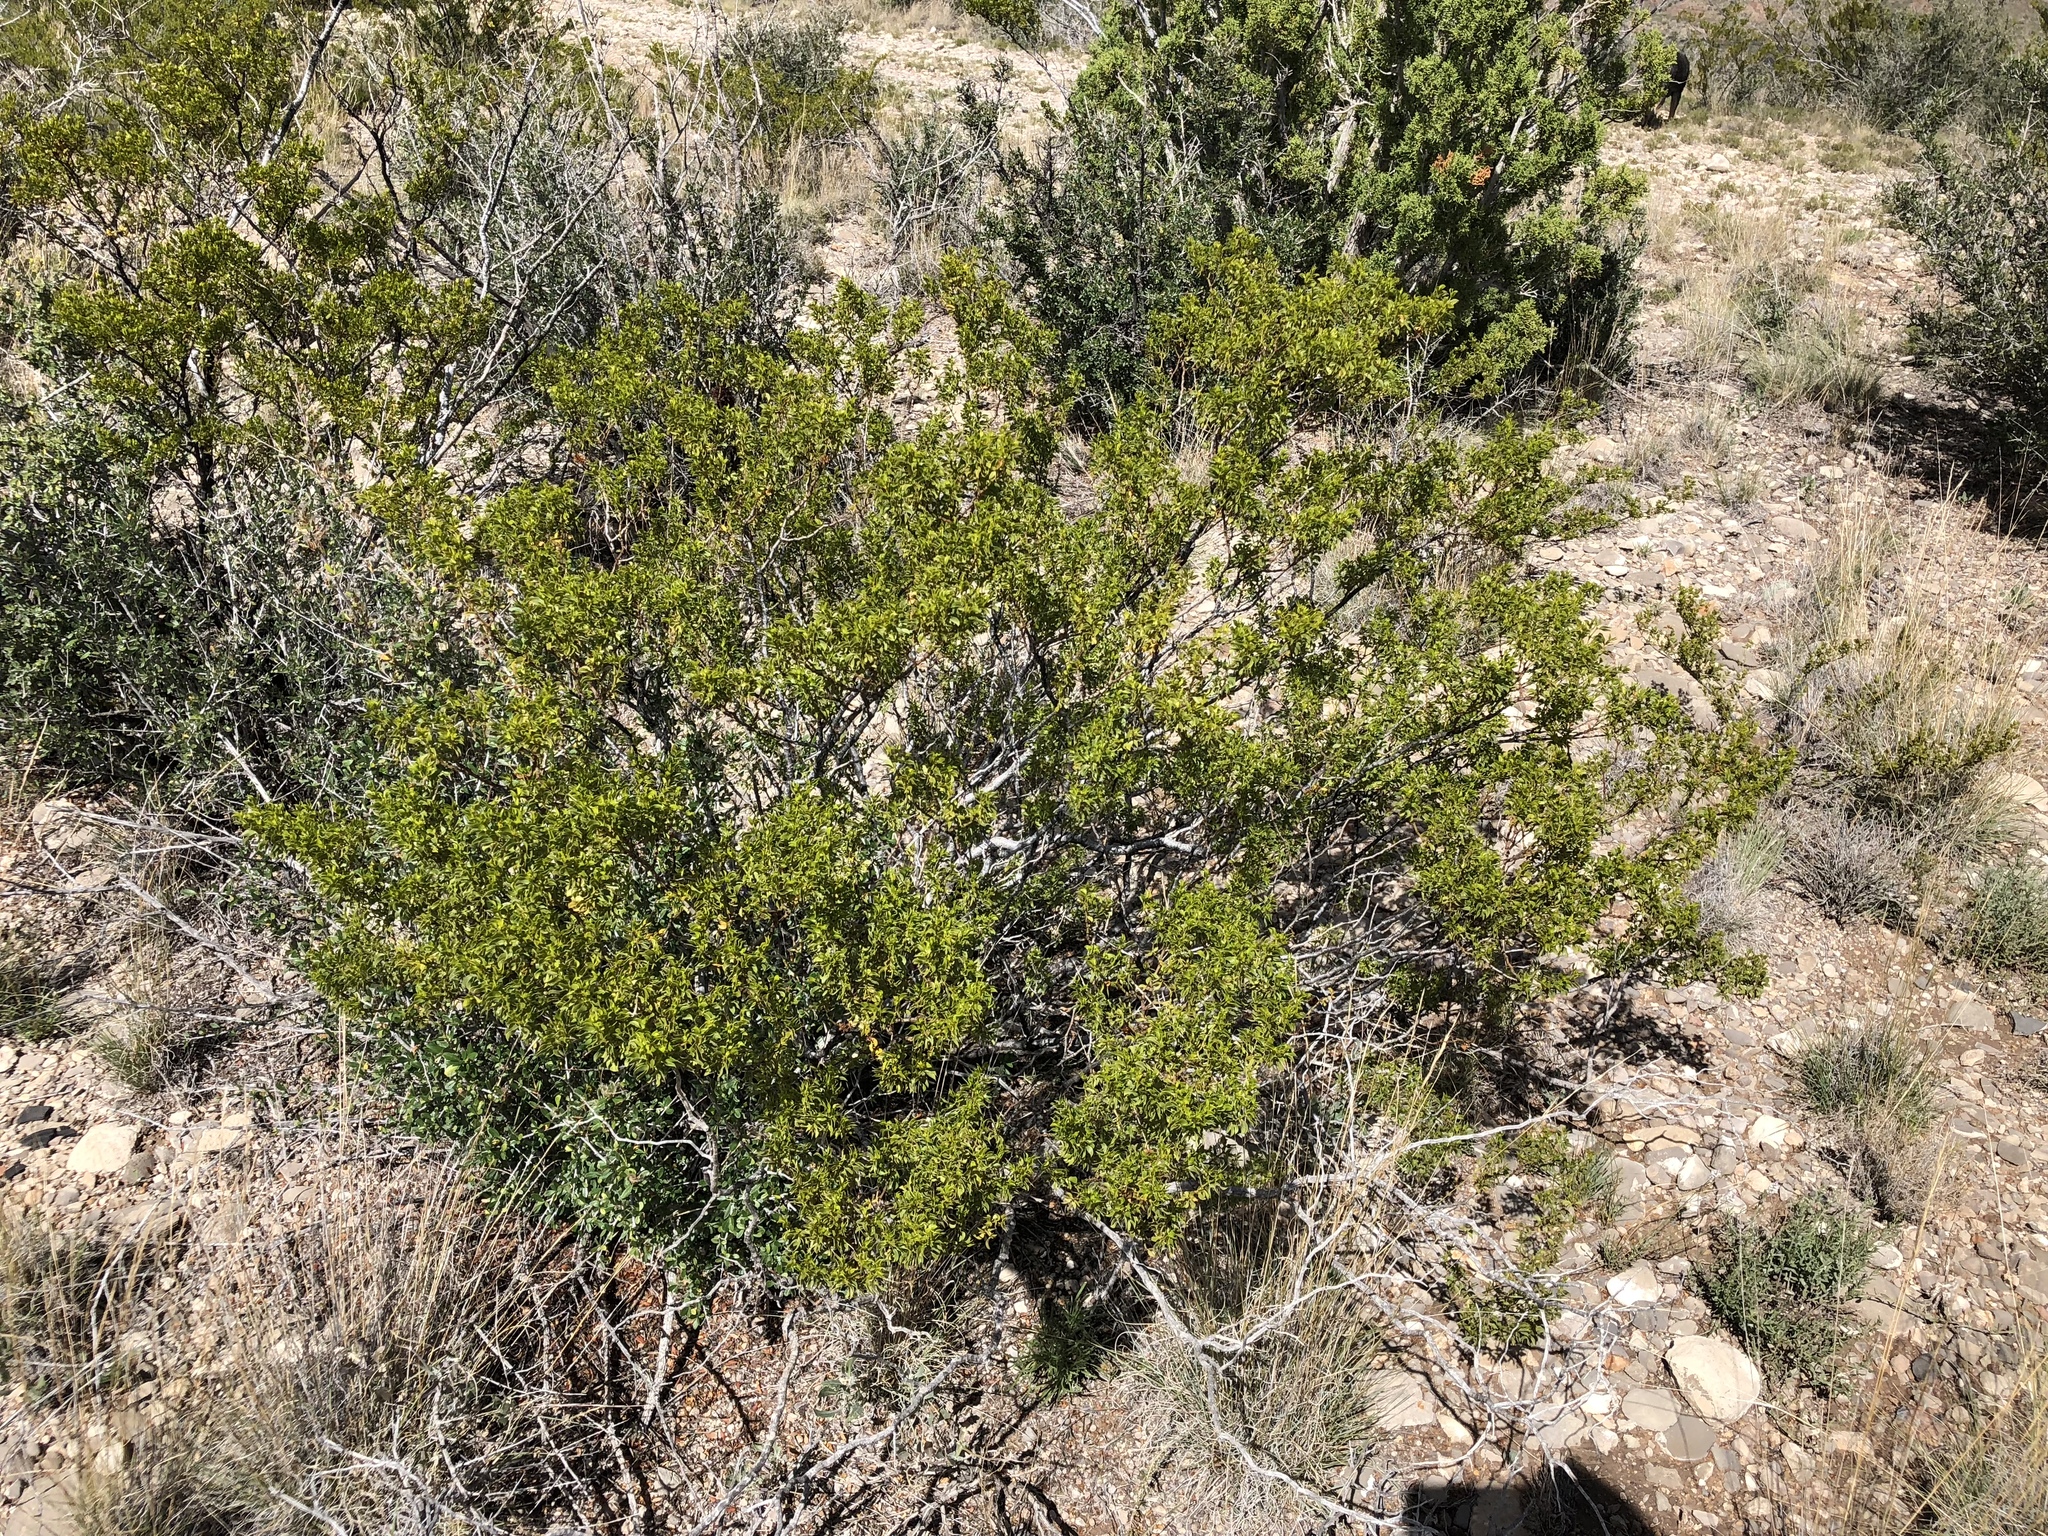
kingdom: Plantae
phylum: Tracheophyta
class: Magnoliopsida
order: Zygophyllales
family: Zygophyllaceae
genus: Larrea
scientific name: Larrea tridentata
